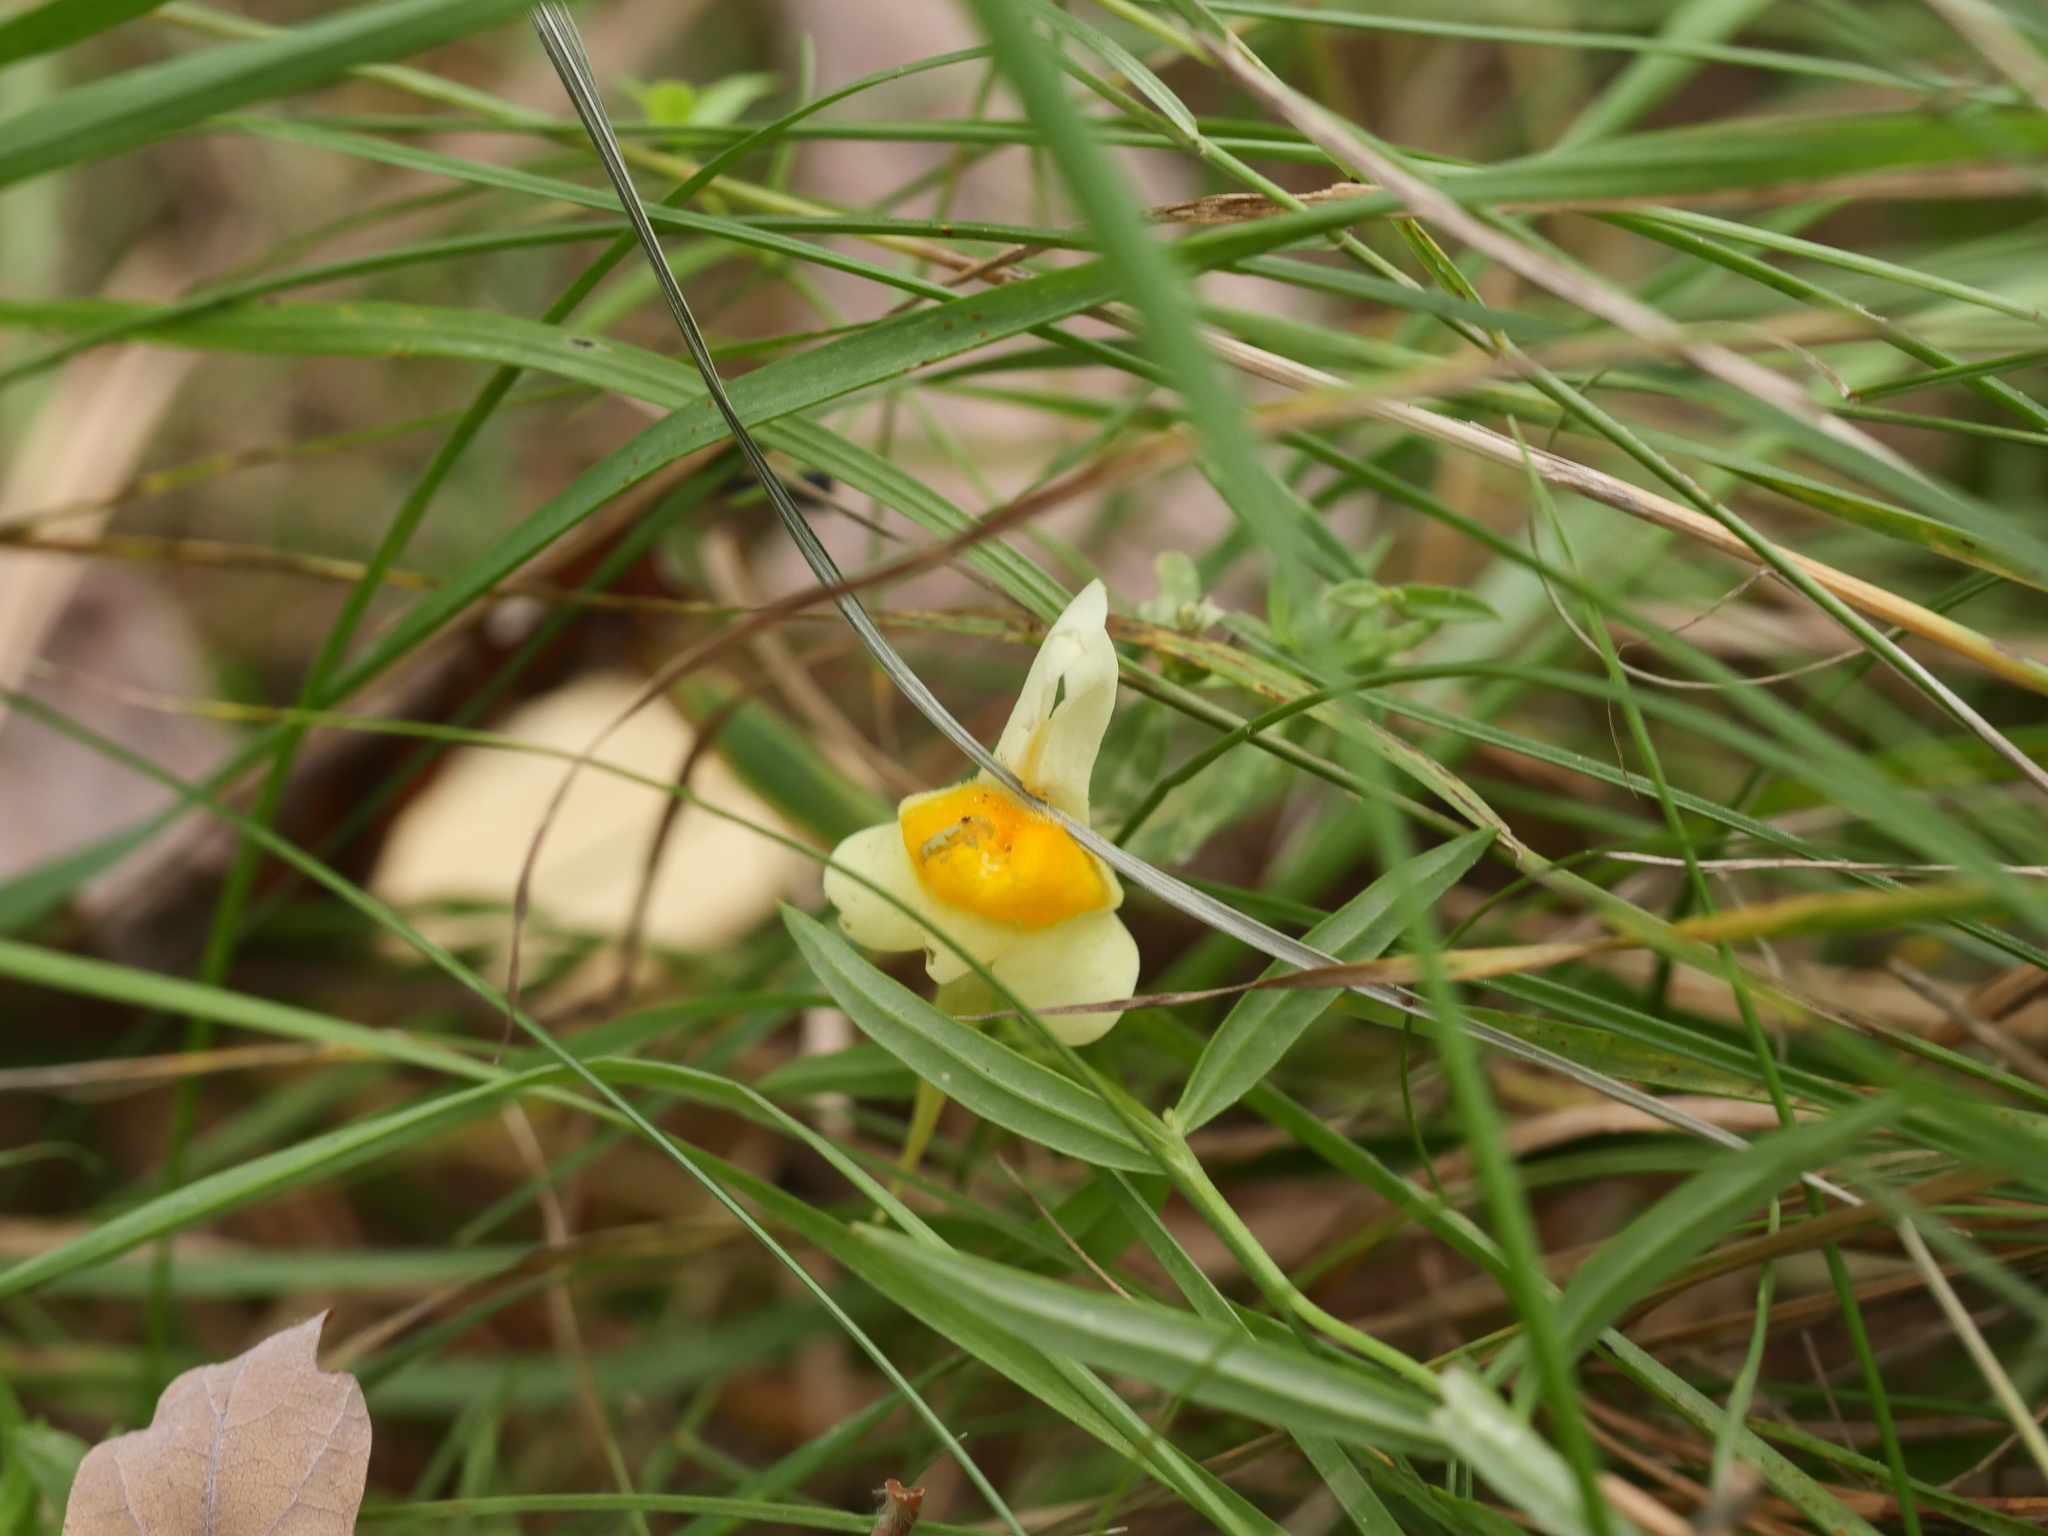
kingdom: Plantae
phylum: Tracheophyta
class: Magnoliopsida
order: Lamiales
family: Plantaginaceae
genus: Linaria
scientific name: Linaria vulgaris
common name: Butter and eggs
